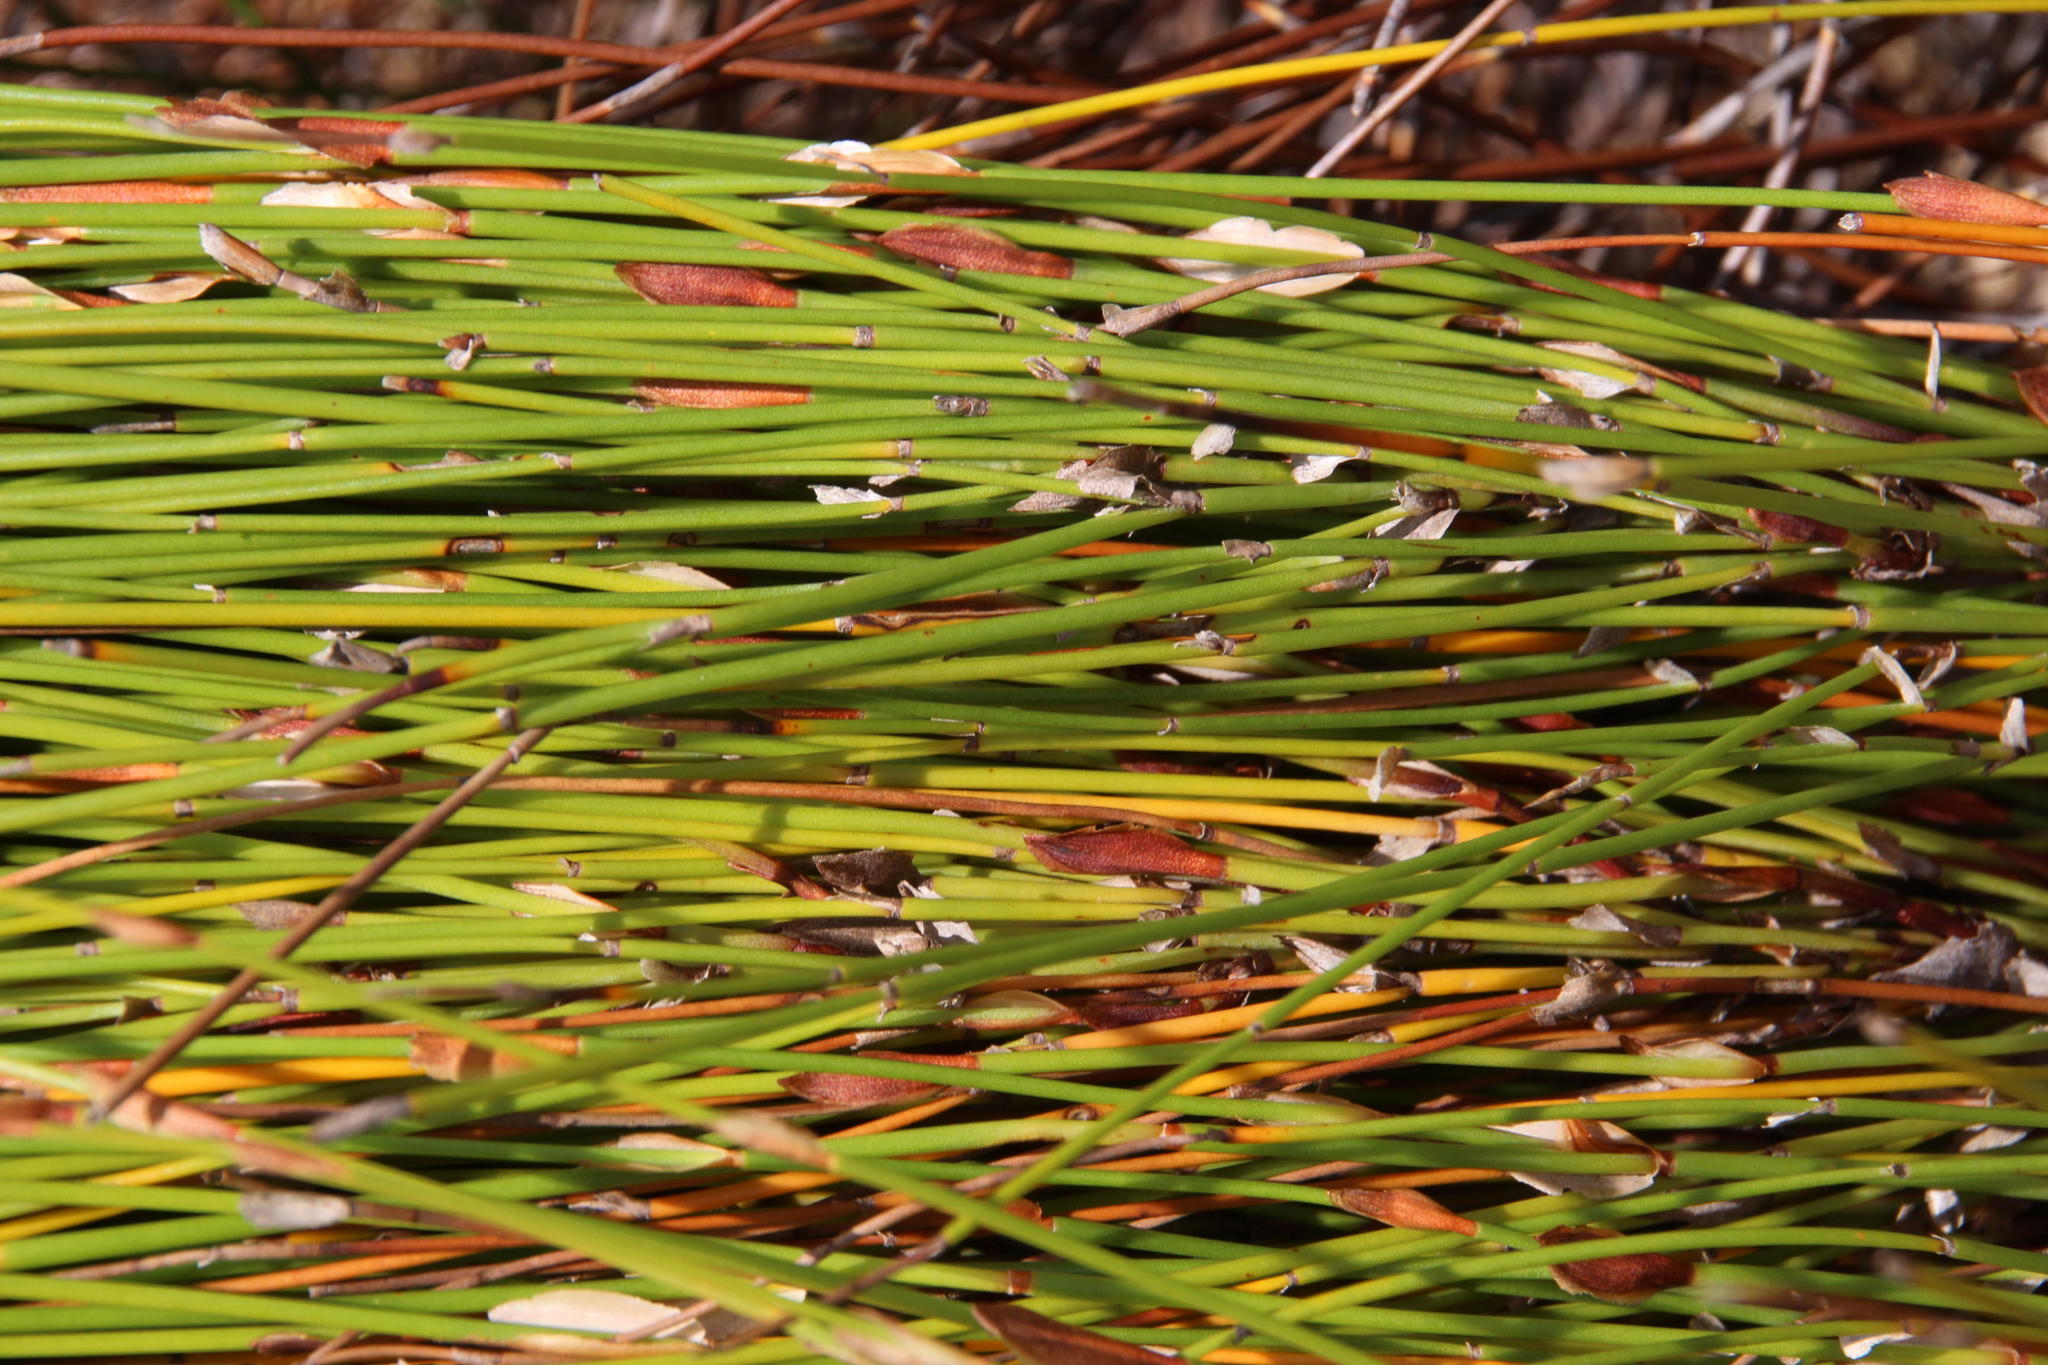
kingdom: Plantae
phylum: Tracheophyta
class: Liliopsida
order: Poales
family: Restionaceae
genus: Elegia
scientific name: Elegia stipularis
